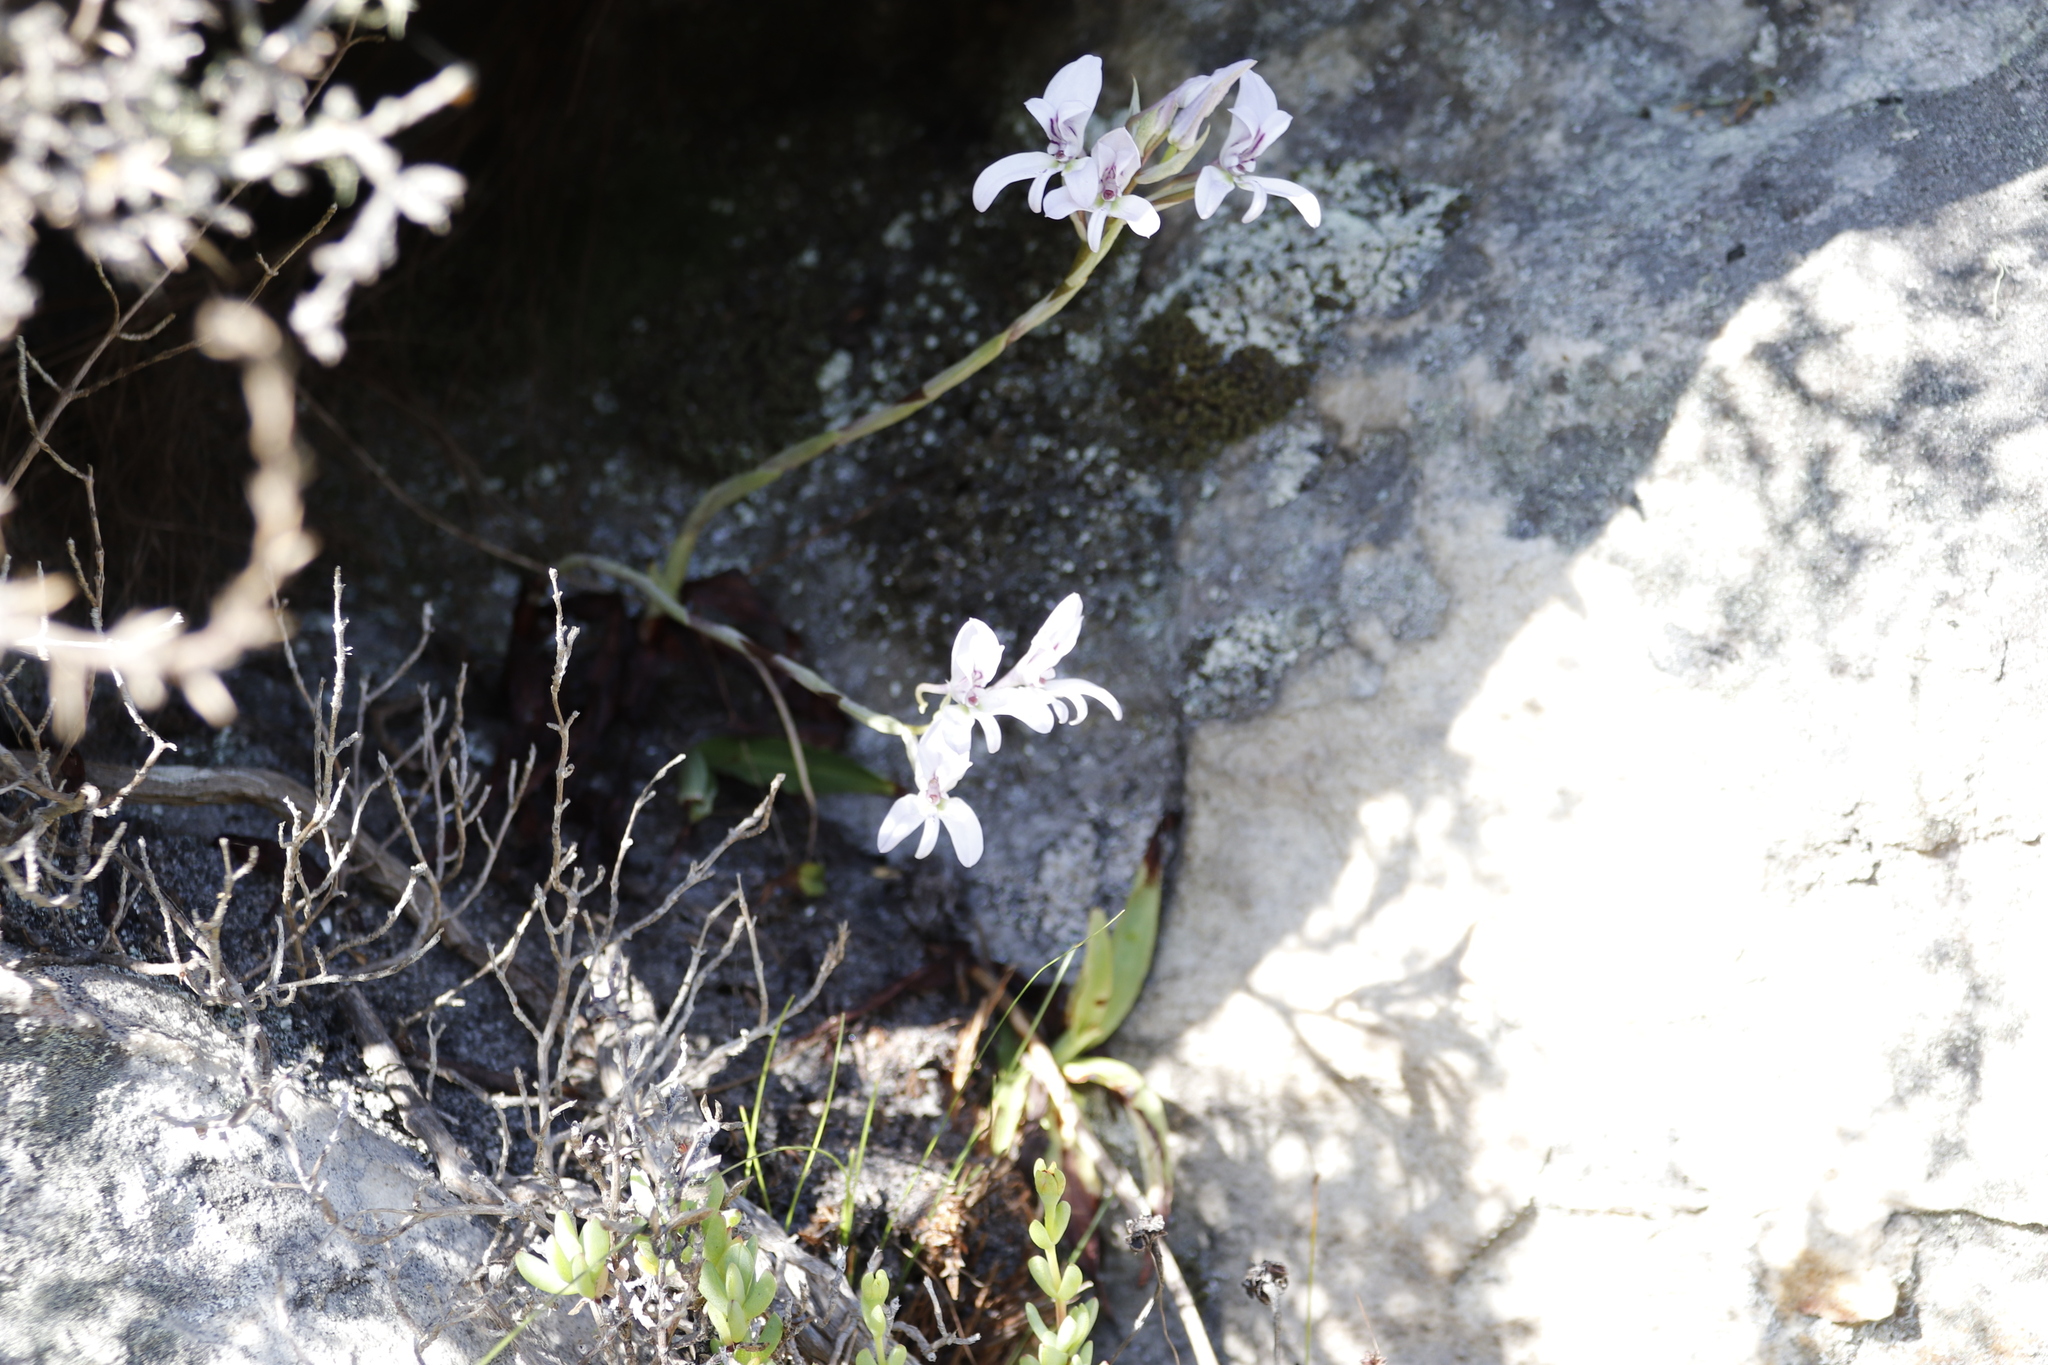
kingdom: Plantae
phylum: Tracheophyta
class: Liliopsida
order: Asparagales
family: Orchidaceae
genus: Disa
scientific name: Disa harveyana
